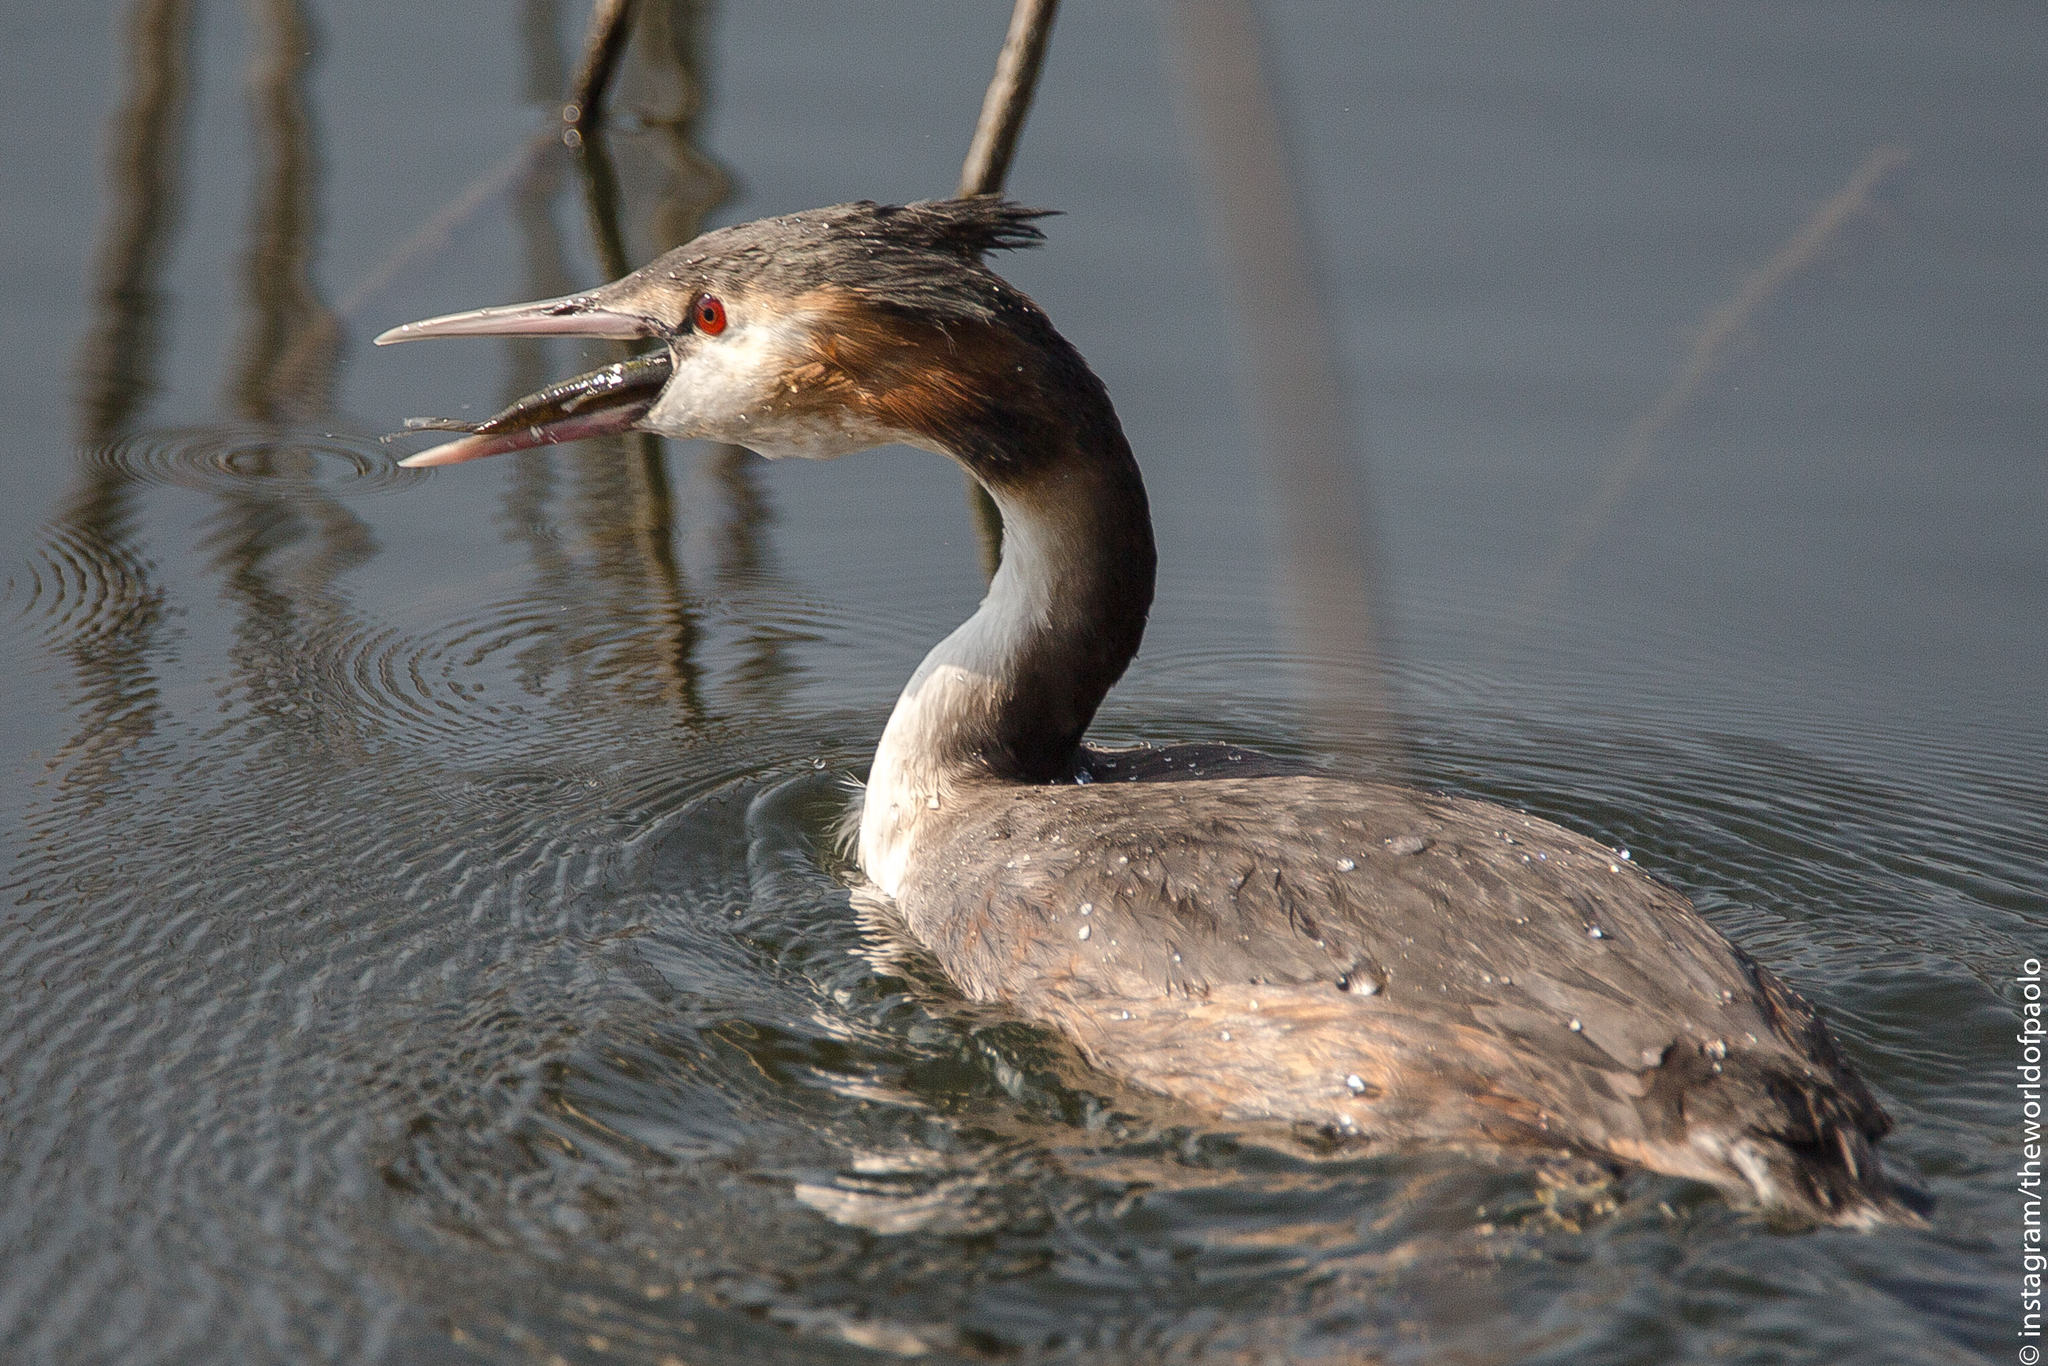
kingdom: Animalia
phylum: Chordata
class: Aves
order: Podicipediformes
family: Podicipedidae
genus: Podiceps
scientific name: Podiceps cristatus
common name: Great crested grebe
